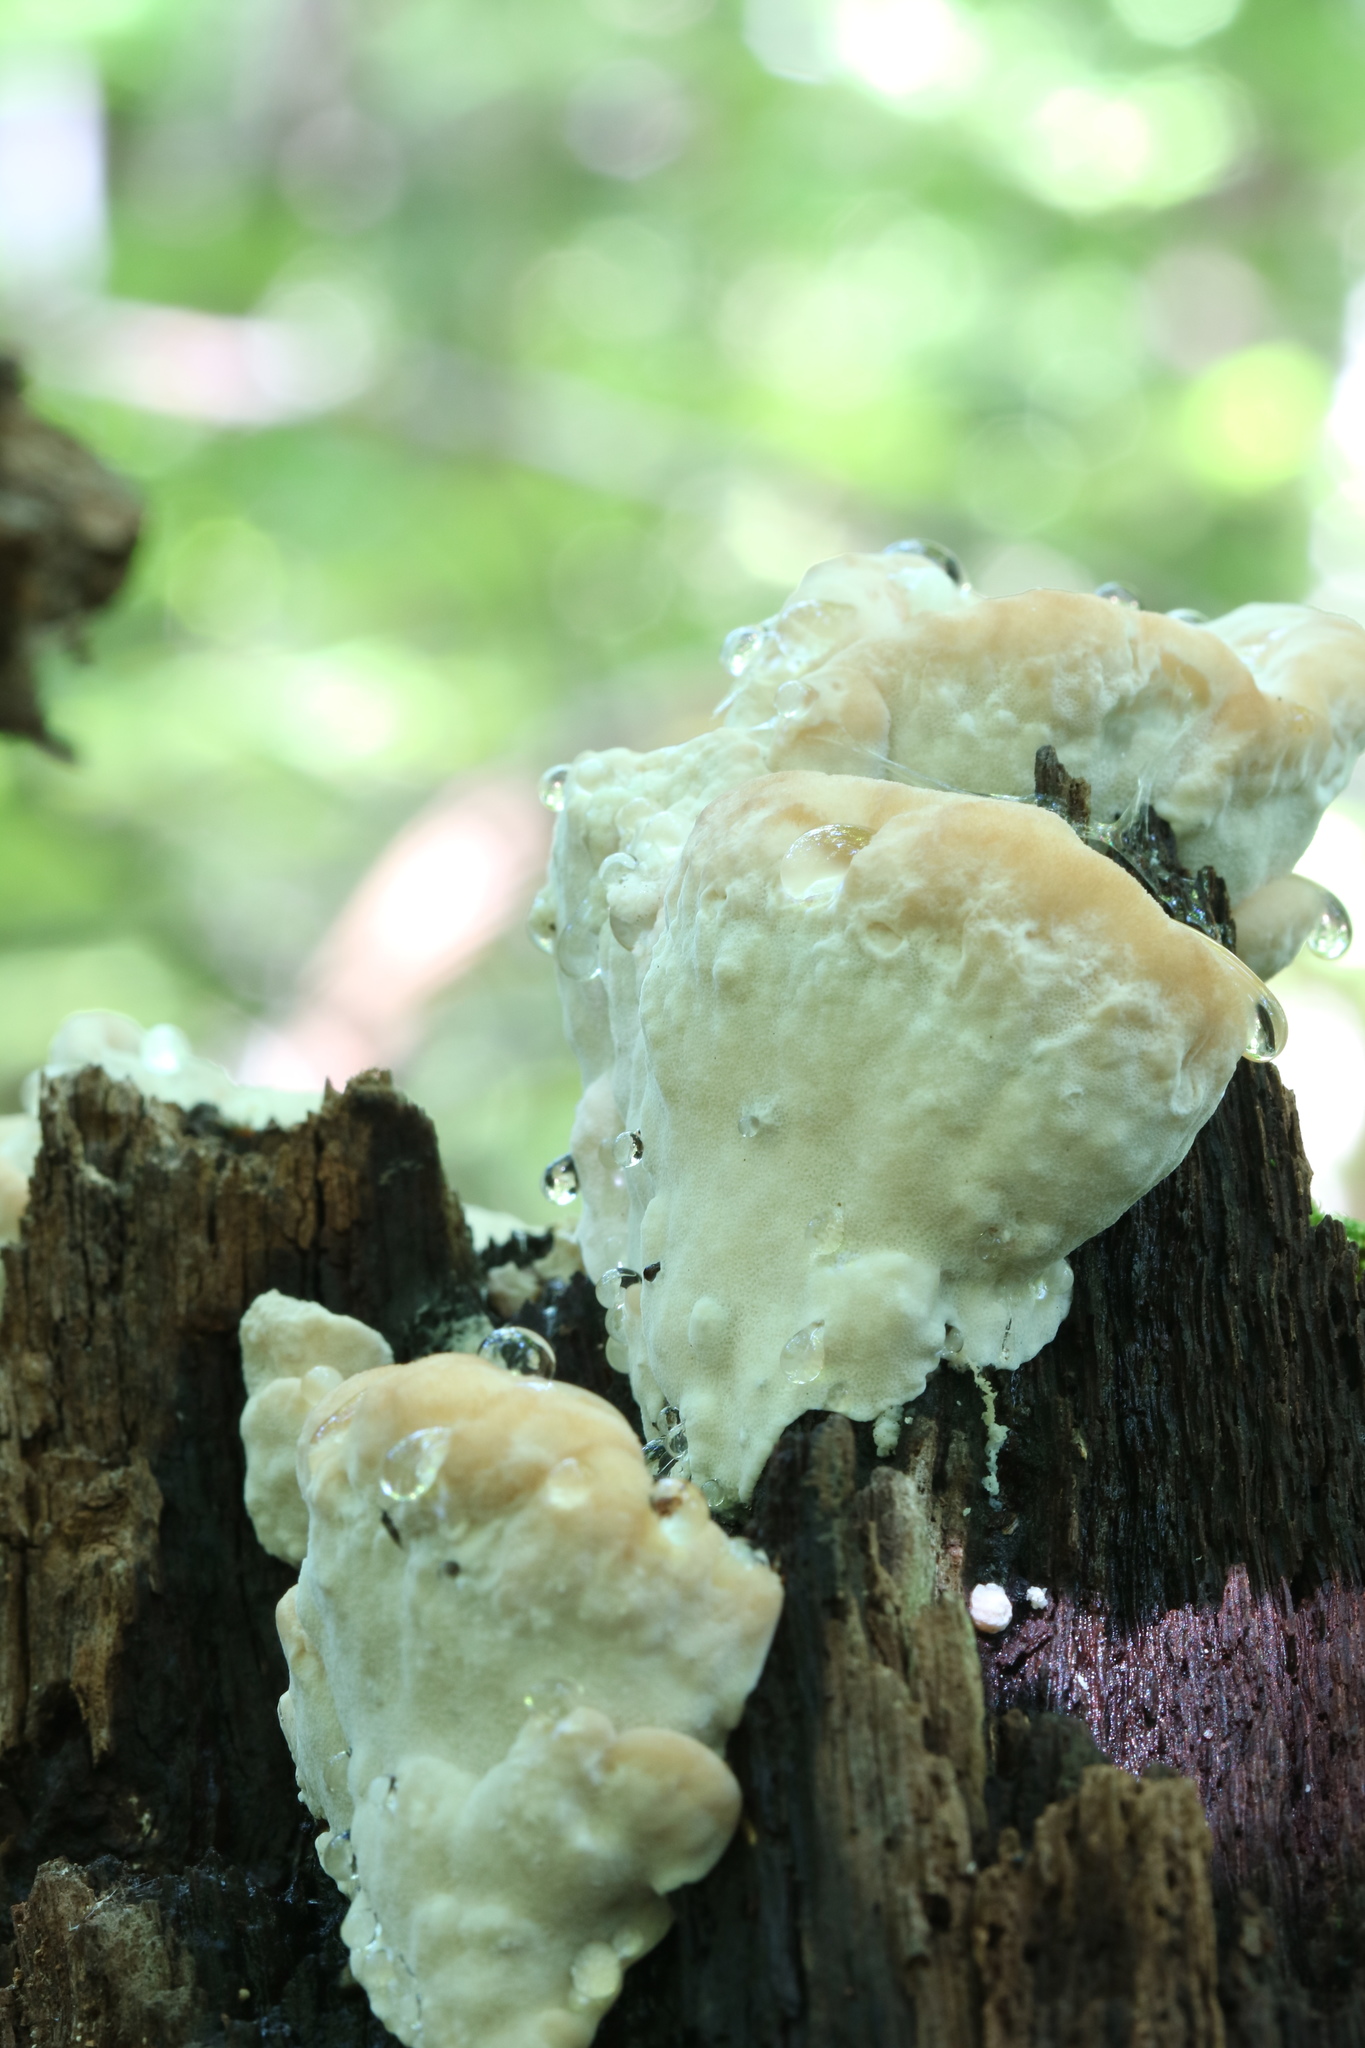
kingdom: Fungi
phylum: Basidiomycota
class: Agaricomycetes
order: Polyporales
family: Fomitopsidaceae
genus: Niveoporofomes
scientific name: Niveoporofomes spraguei
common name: Green cheese polypore
